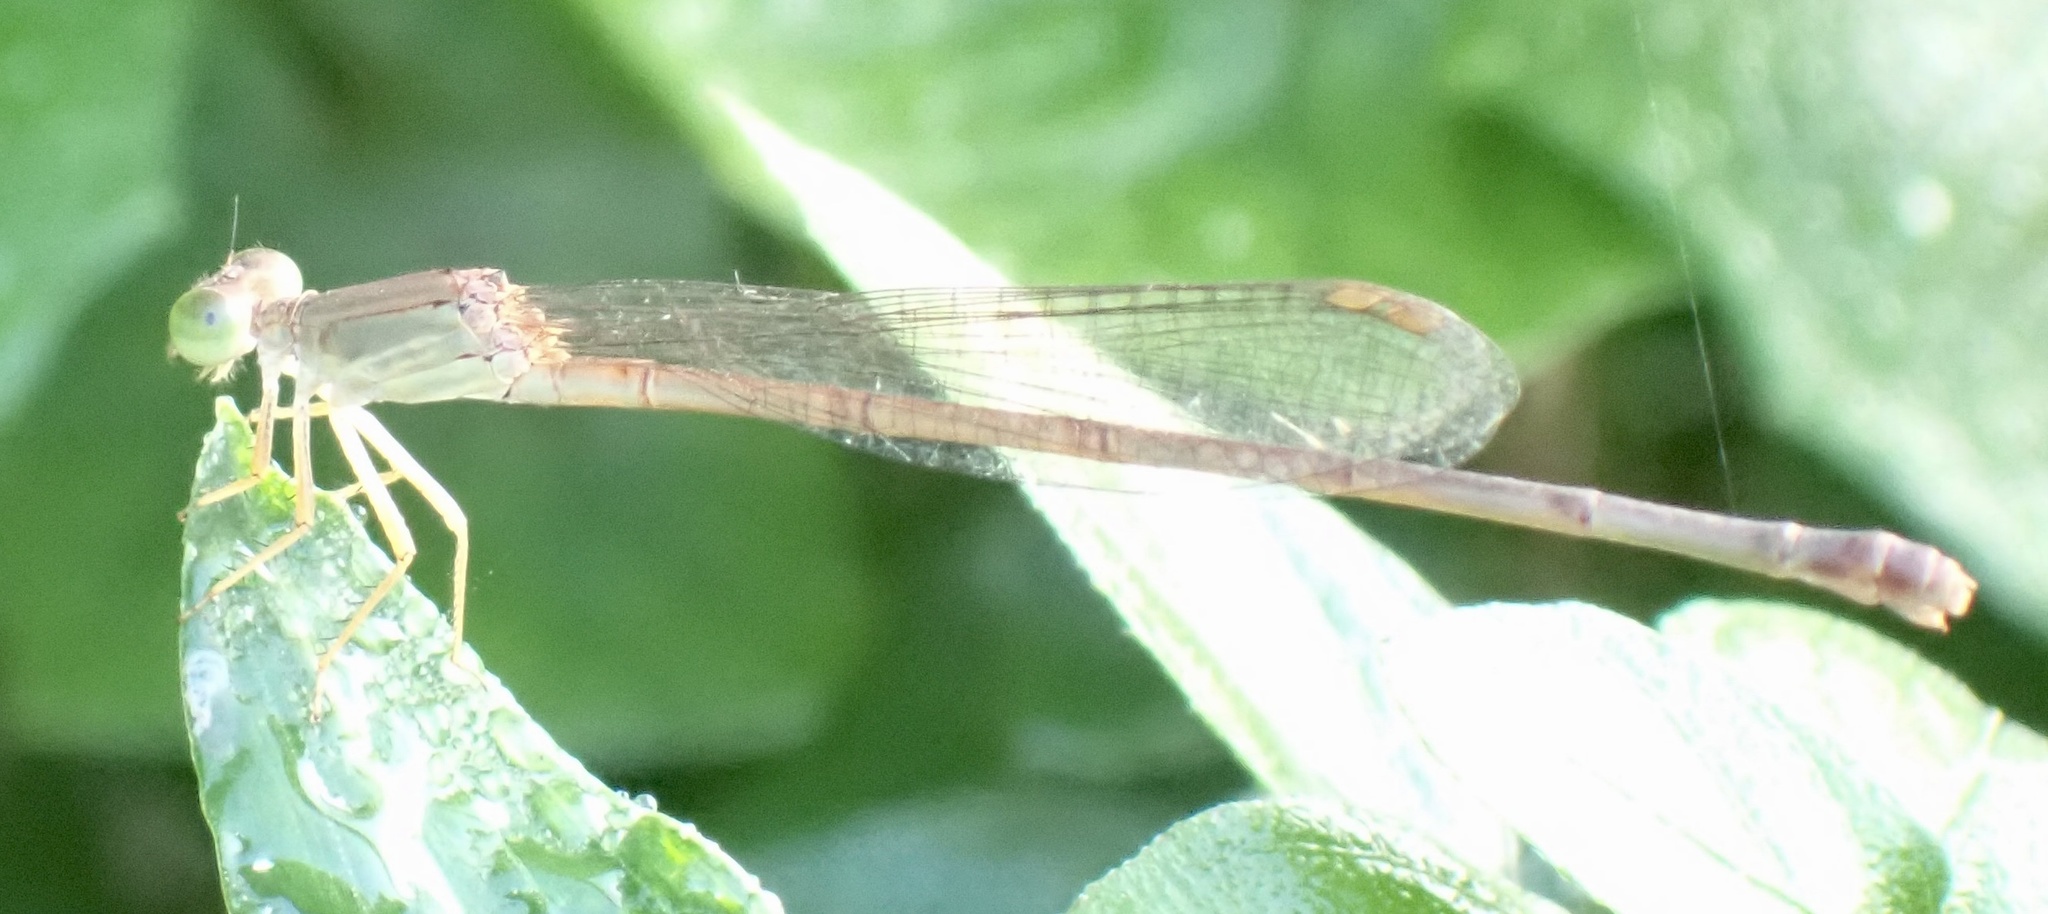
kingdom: Animalia
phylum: Arthropoda
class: Insecta
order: Odonata
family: Coenagrionidae
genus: Ceriagrion
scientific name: Ceriagrion glabrum
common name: Common pond damsel
